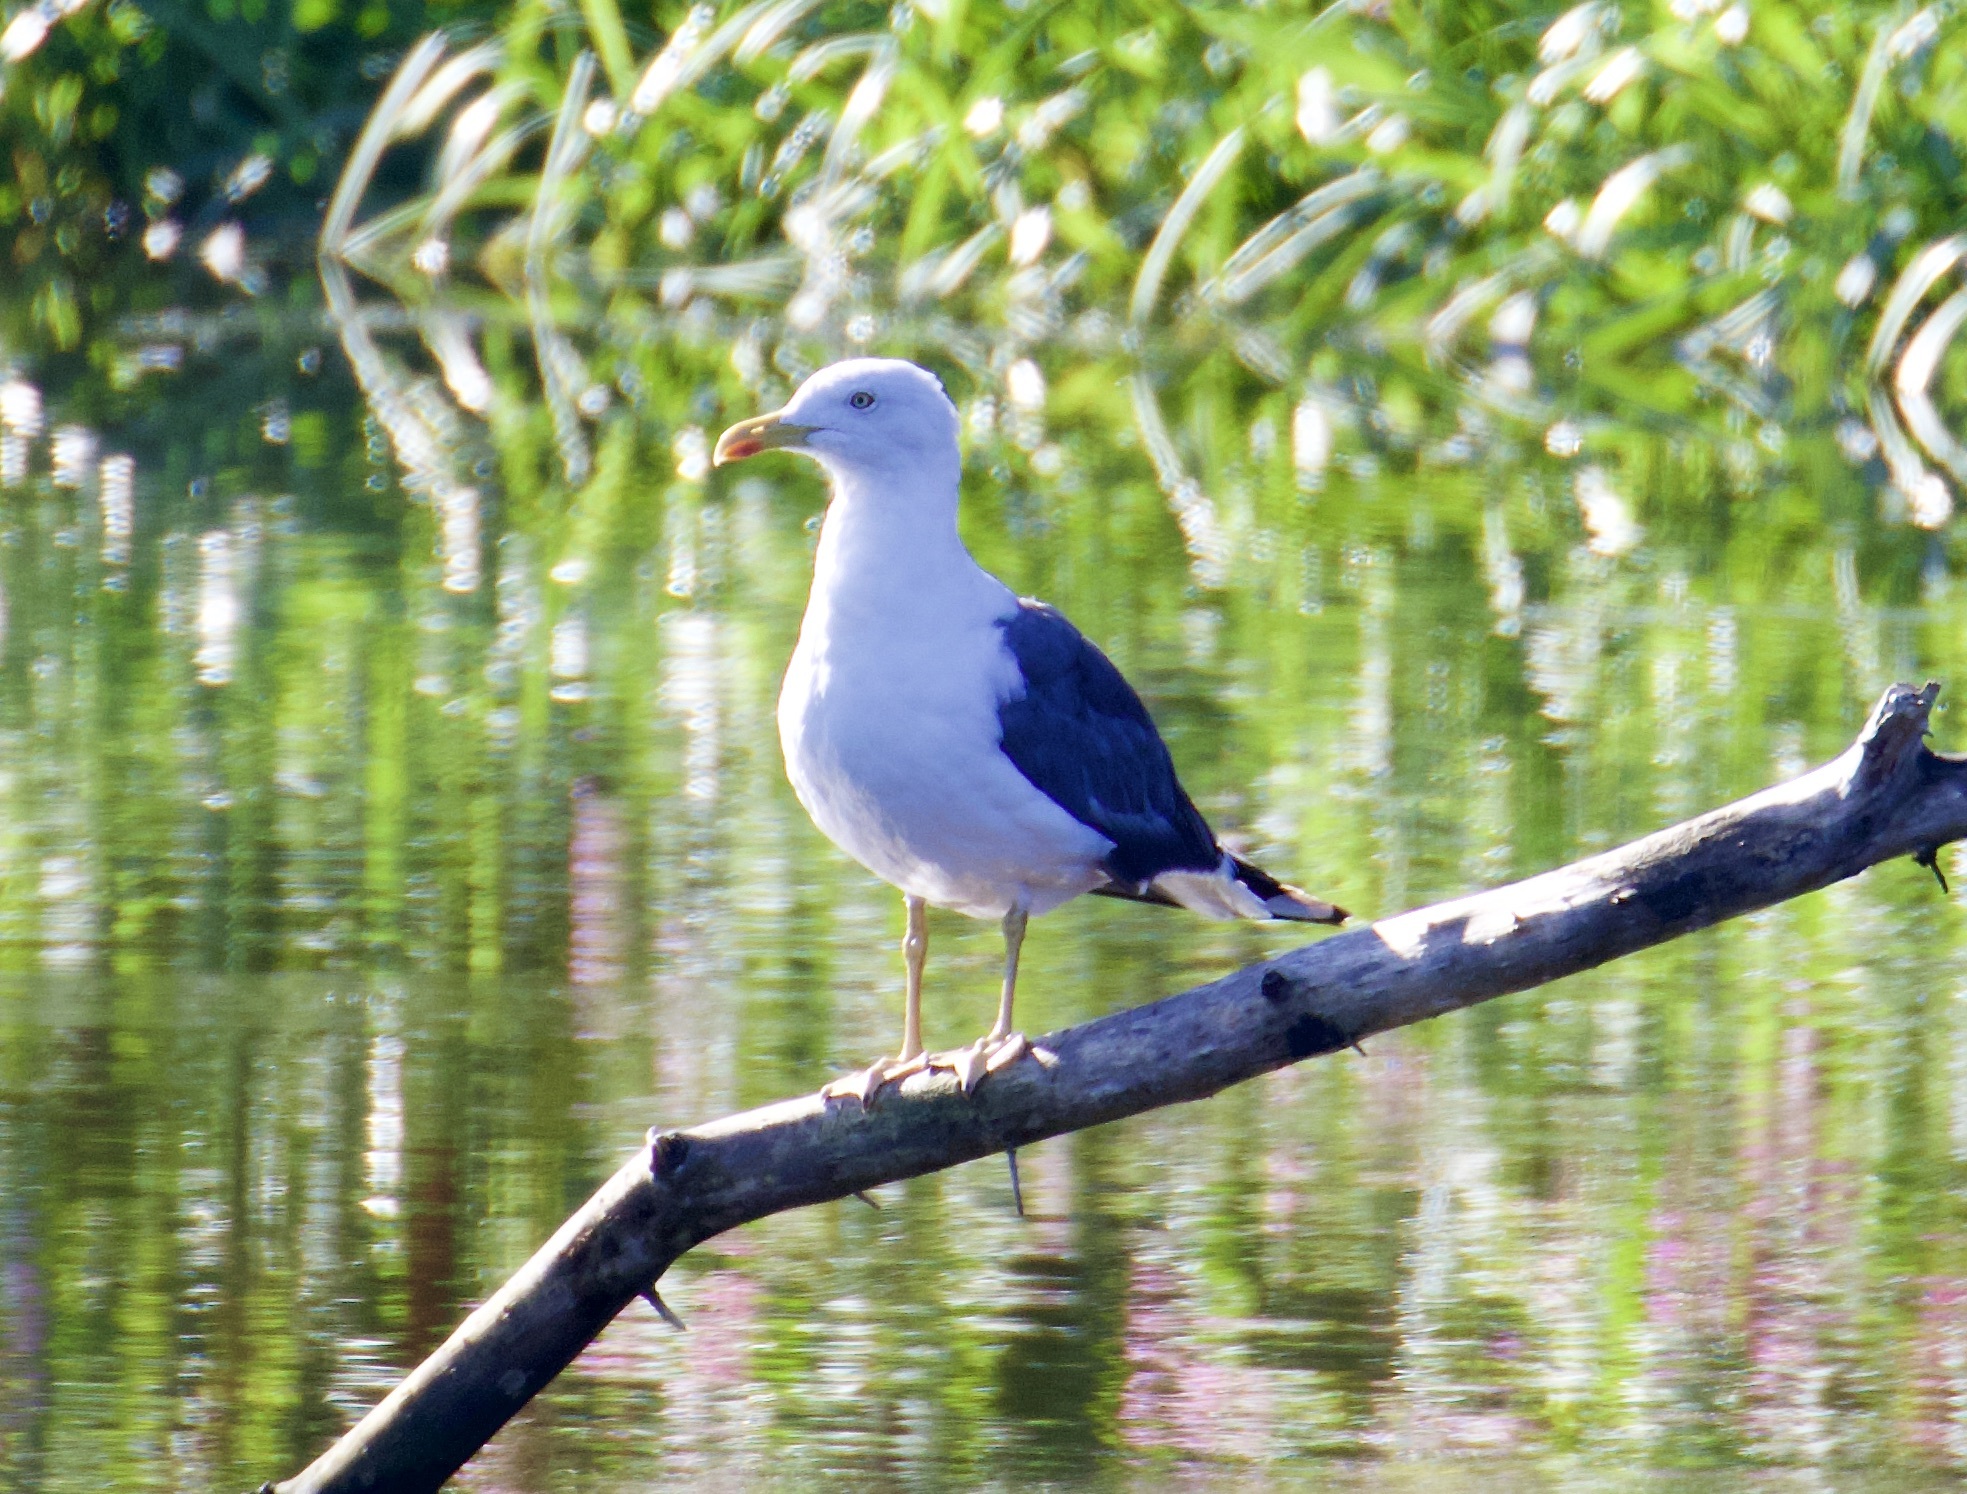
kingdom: Animalia
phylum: Chordata
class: Aves
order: Charadriiformes
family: Laridae
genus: Larus
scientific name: Larus fuscus
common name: Lesser black-backed gull
